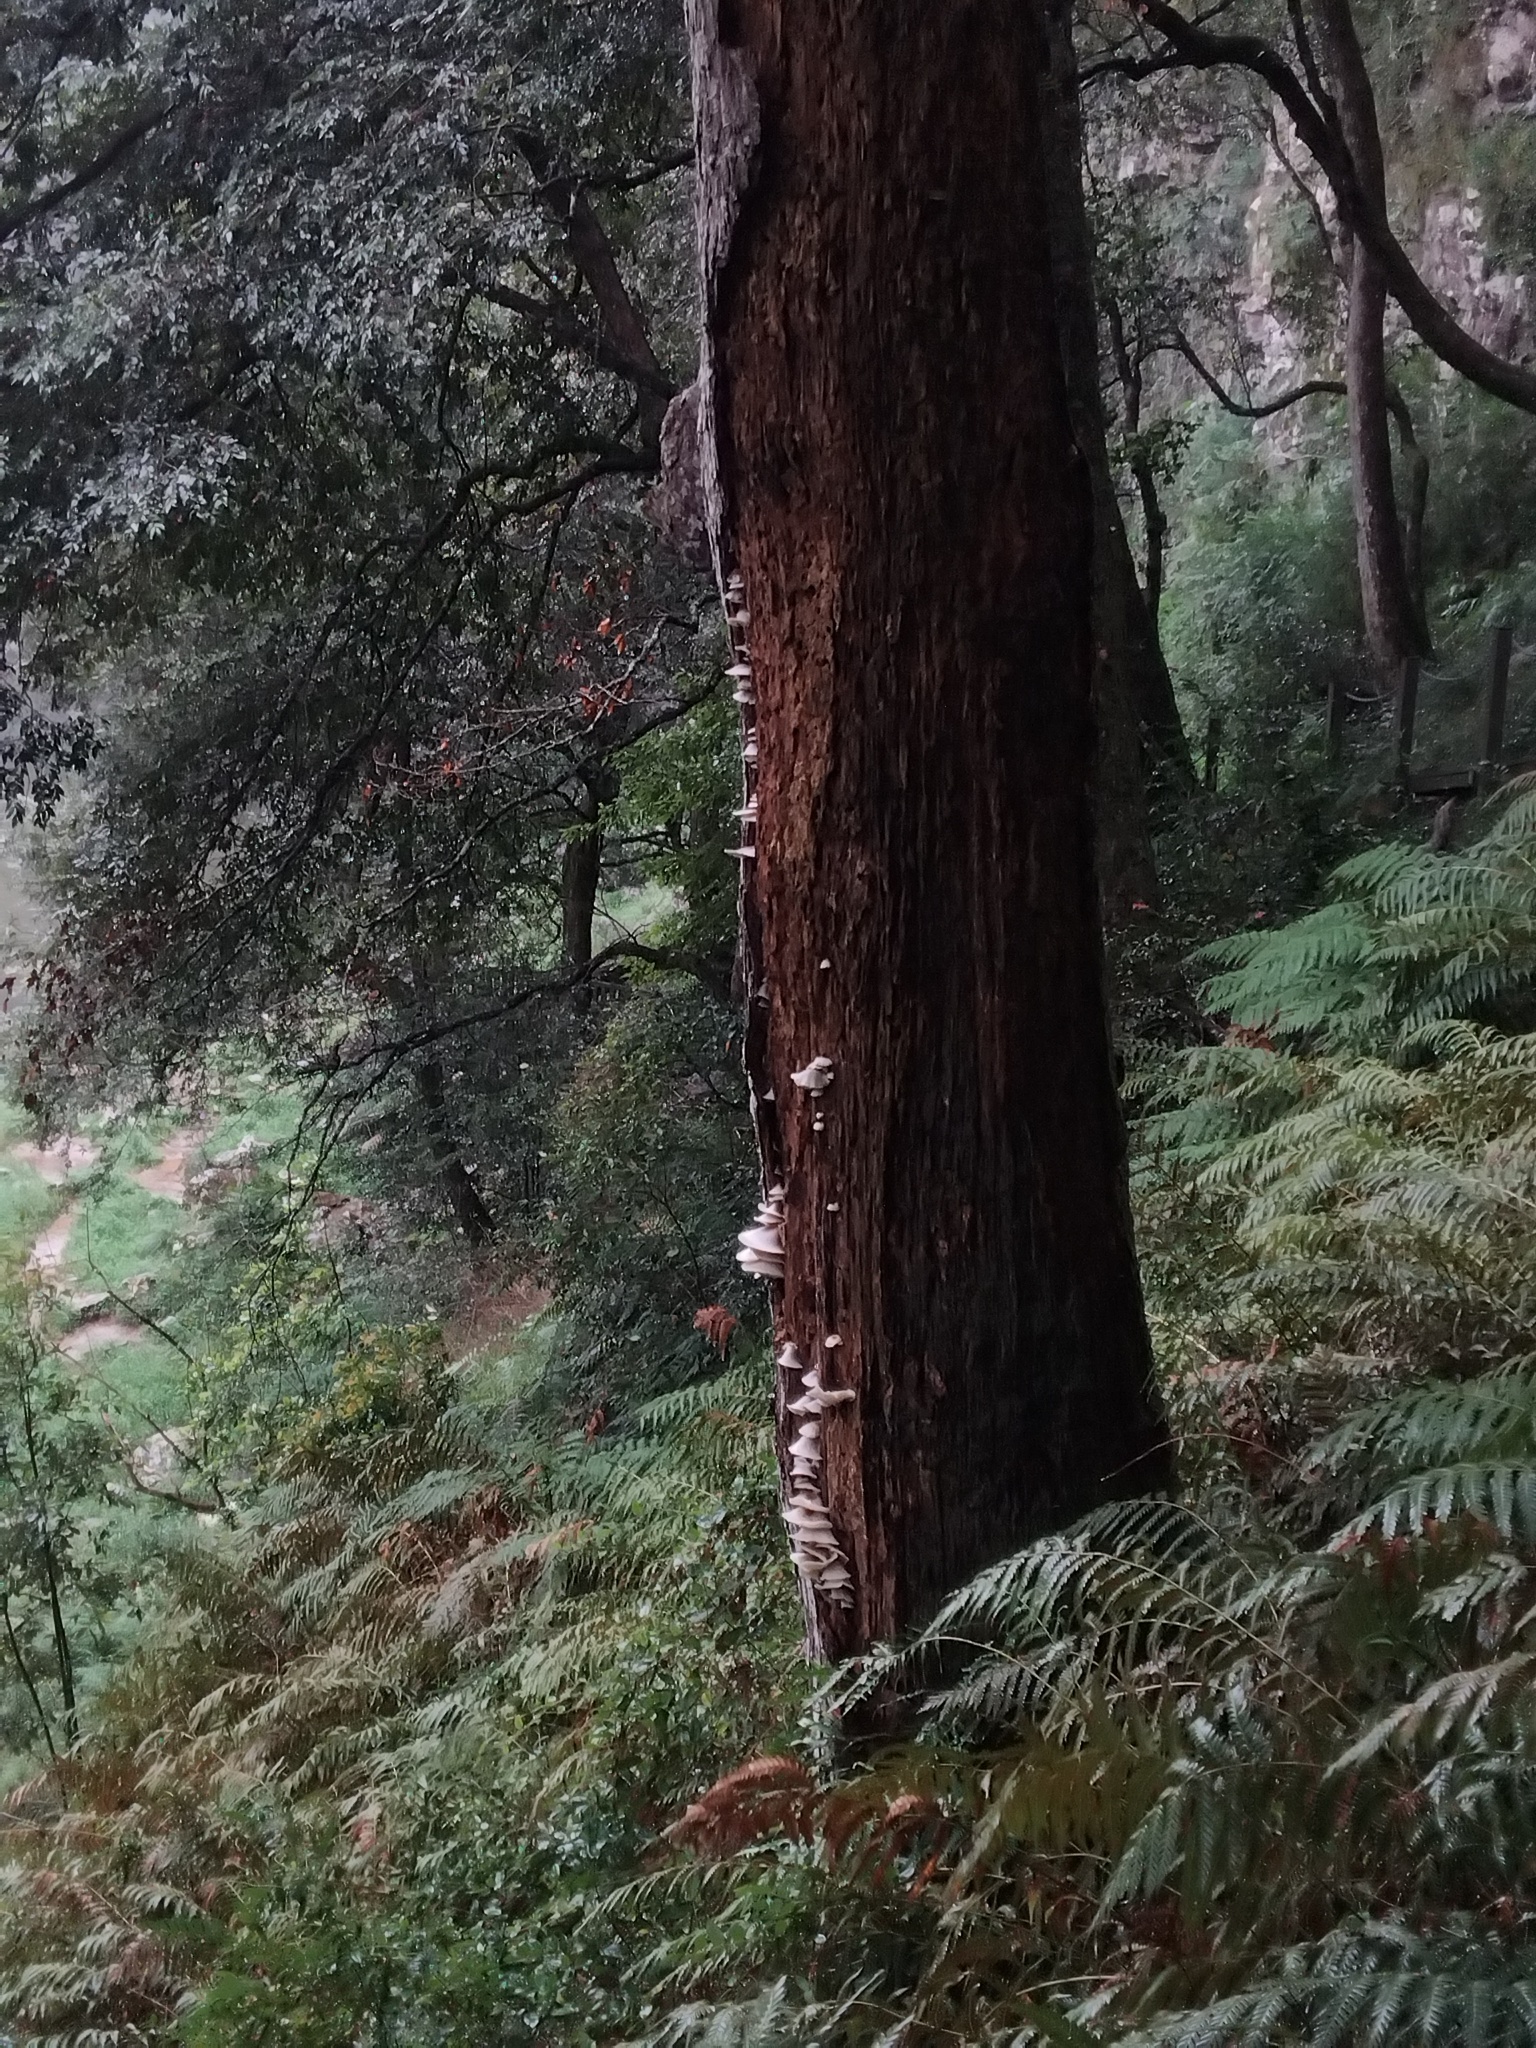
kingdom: Fungi
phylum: Basidiomycota
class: Agaricomycetes
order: Agaricales
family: Omphalotaceae
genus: Omphalotus
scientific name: Omphalotus nidiformis
